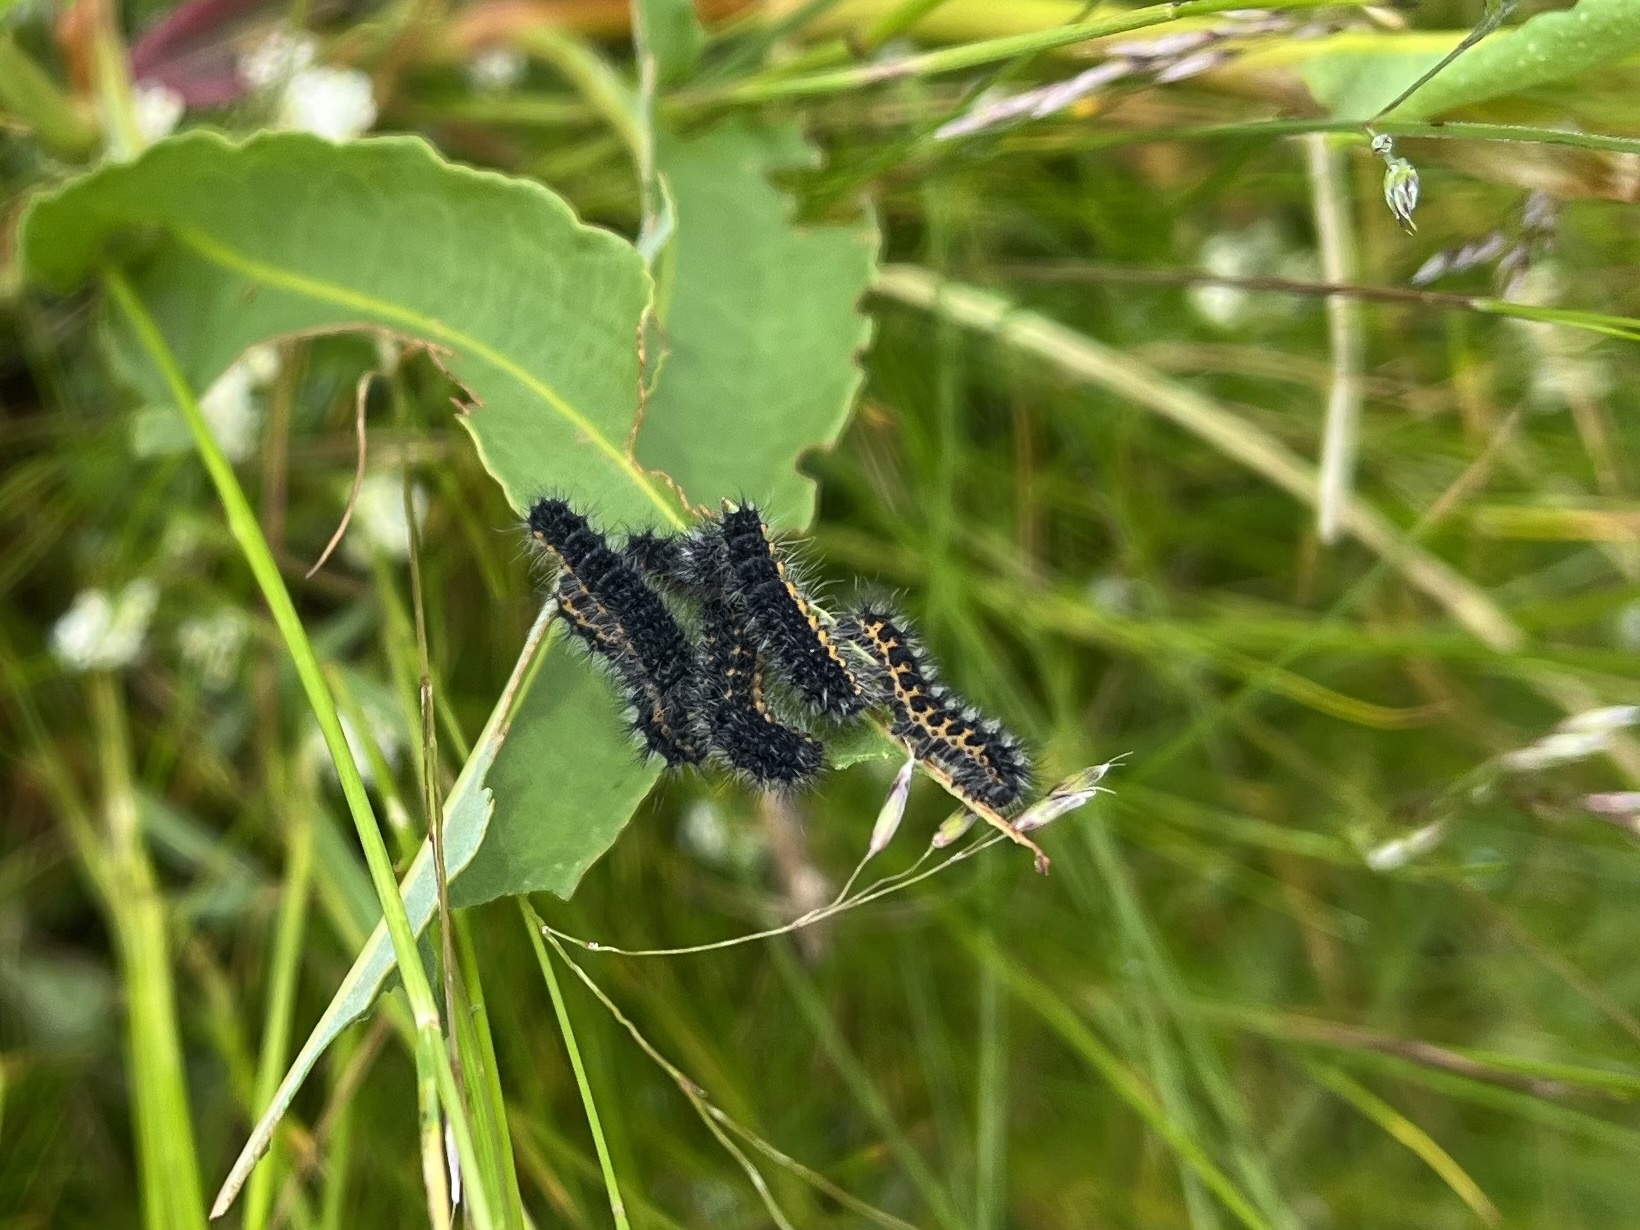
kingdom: Animalia
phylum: Arthropoda
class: Insecta
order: Lepidoptera
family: Saturniidae
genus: Saturnia
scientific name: Saturnia pavonia
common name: Emperor moth
